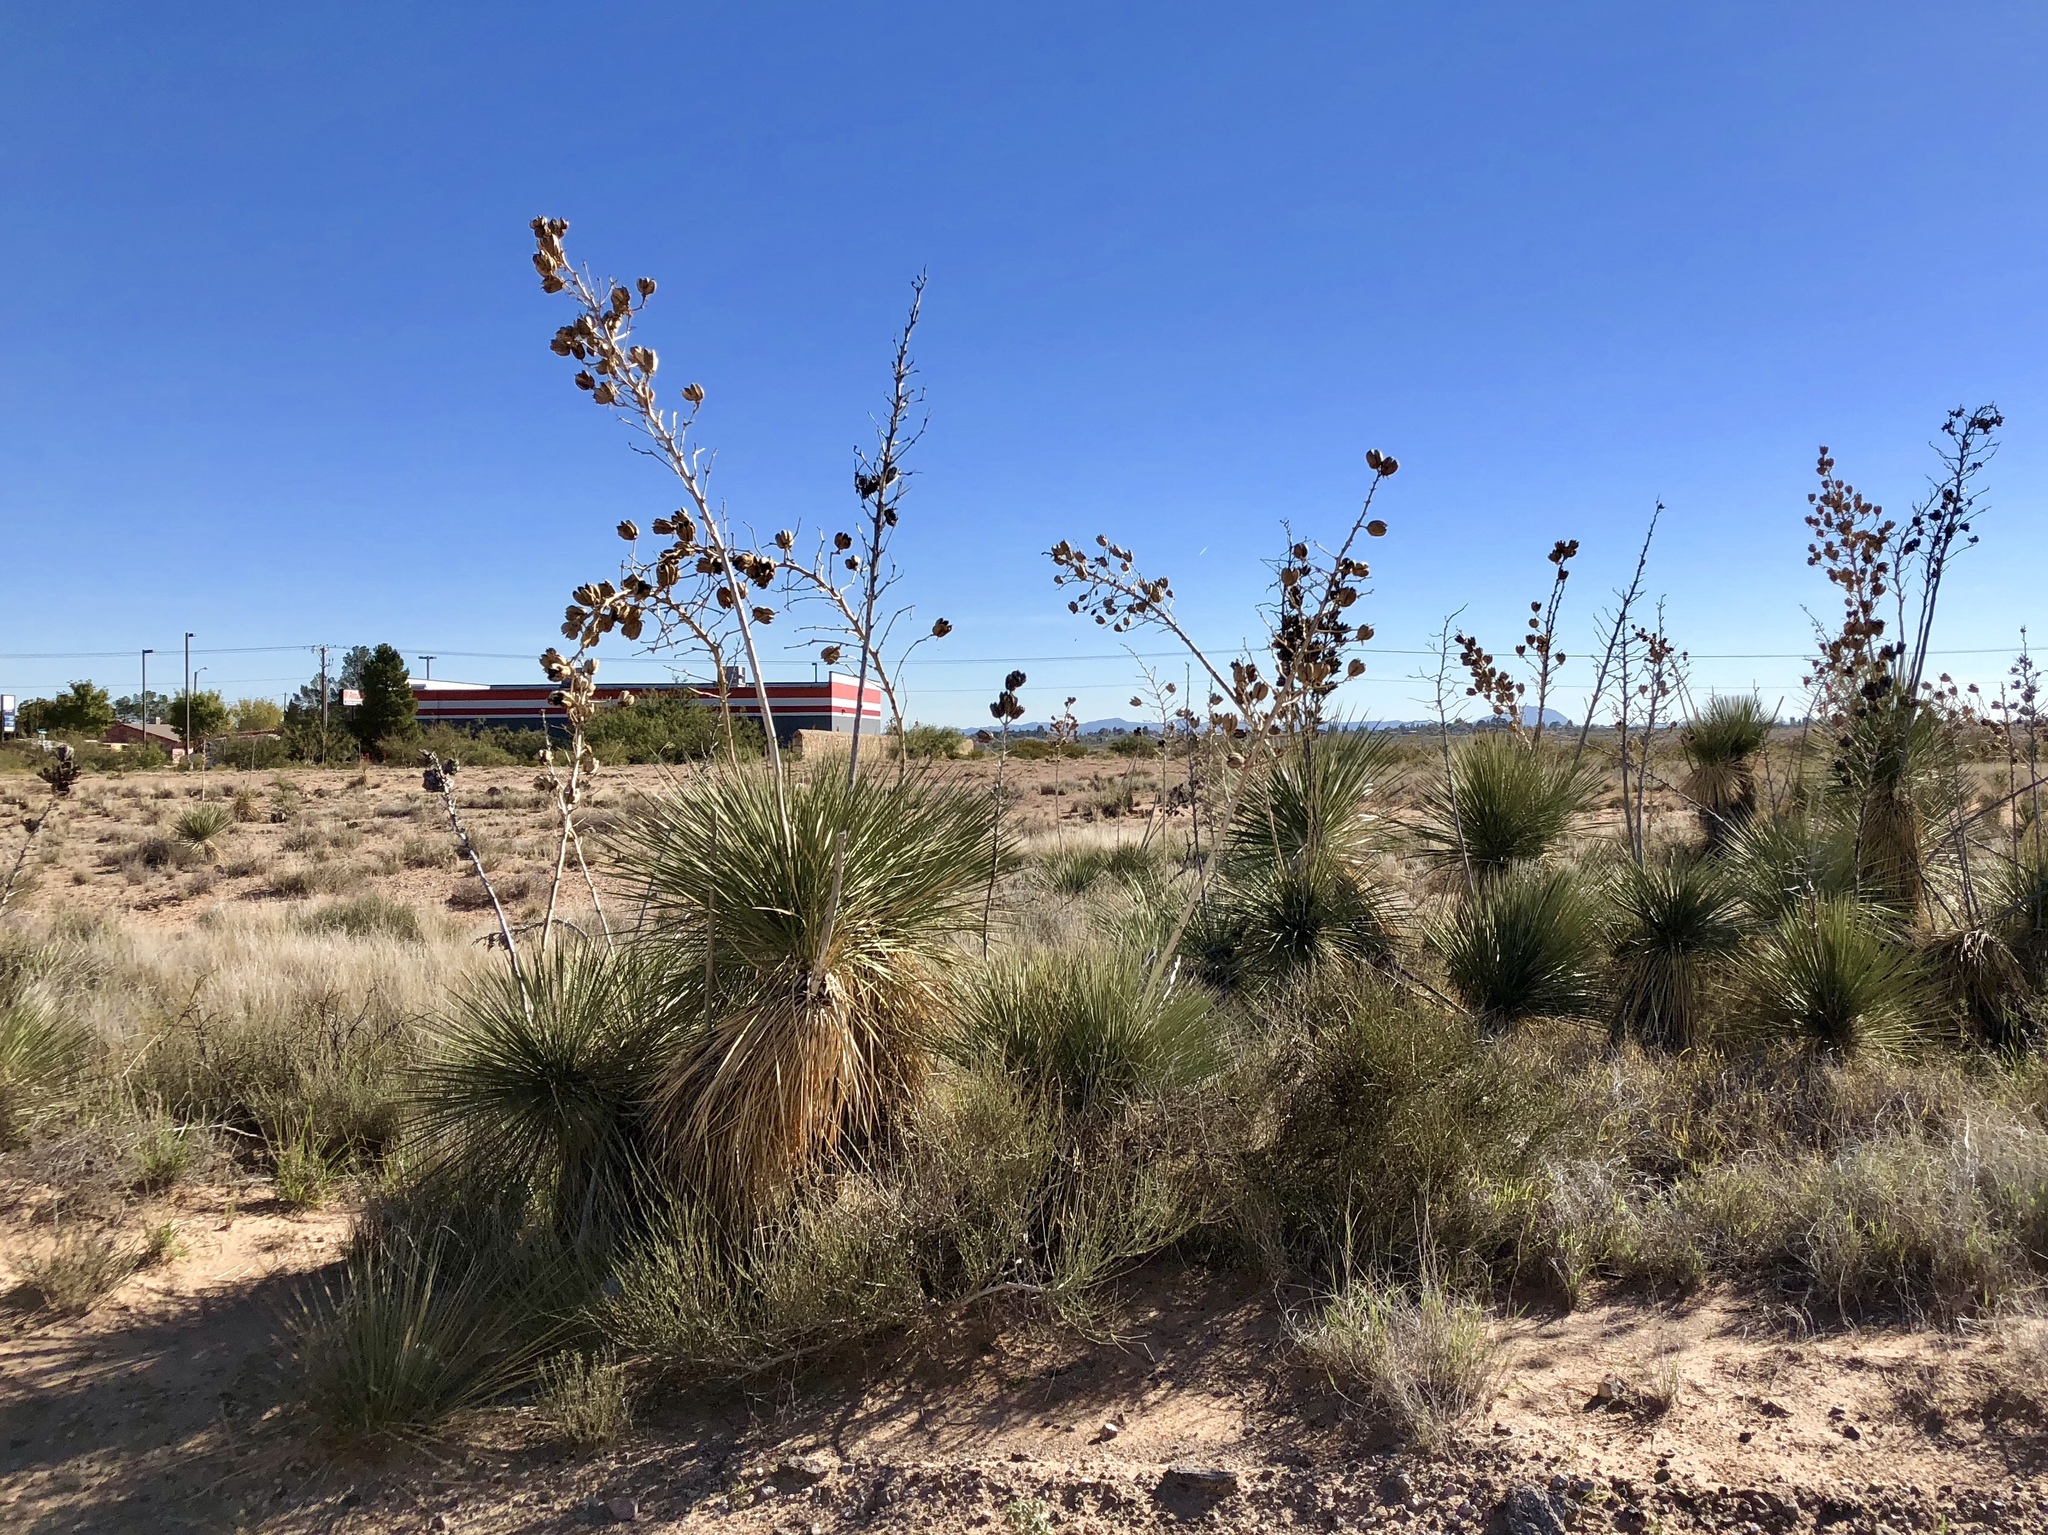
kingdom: Plantae
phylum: Tracheophyta
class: Liliopsida
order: Asparagales
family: Asparagaceae
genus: Yucca
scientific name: Yucca elata
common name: Palmella
